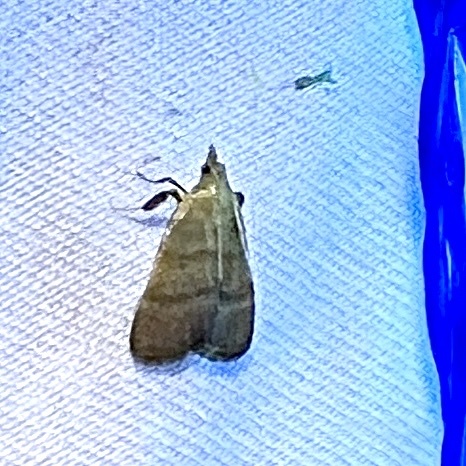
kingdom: Animalia
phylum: Arthropoda
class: Insecta
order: Lepidoptera
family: Pyralidae
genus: Condylolomia
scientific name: Condylolomia participialis
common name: Drab condylolomia moth
